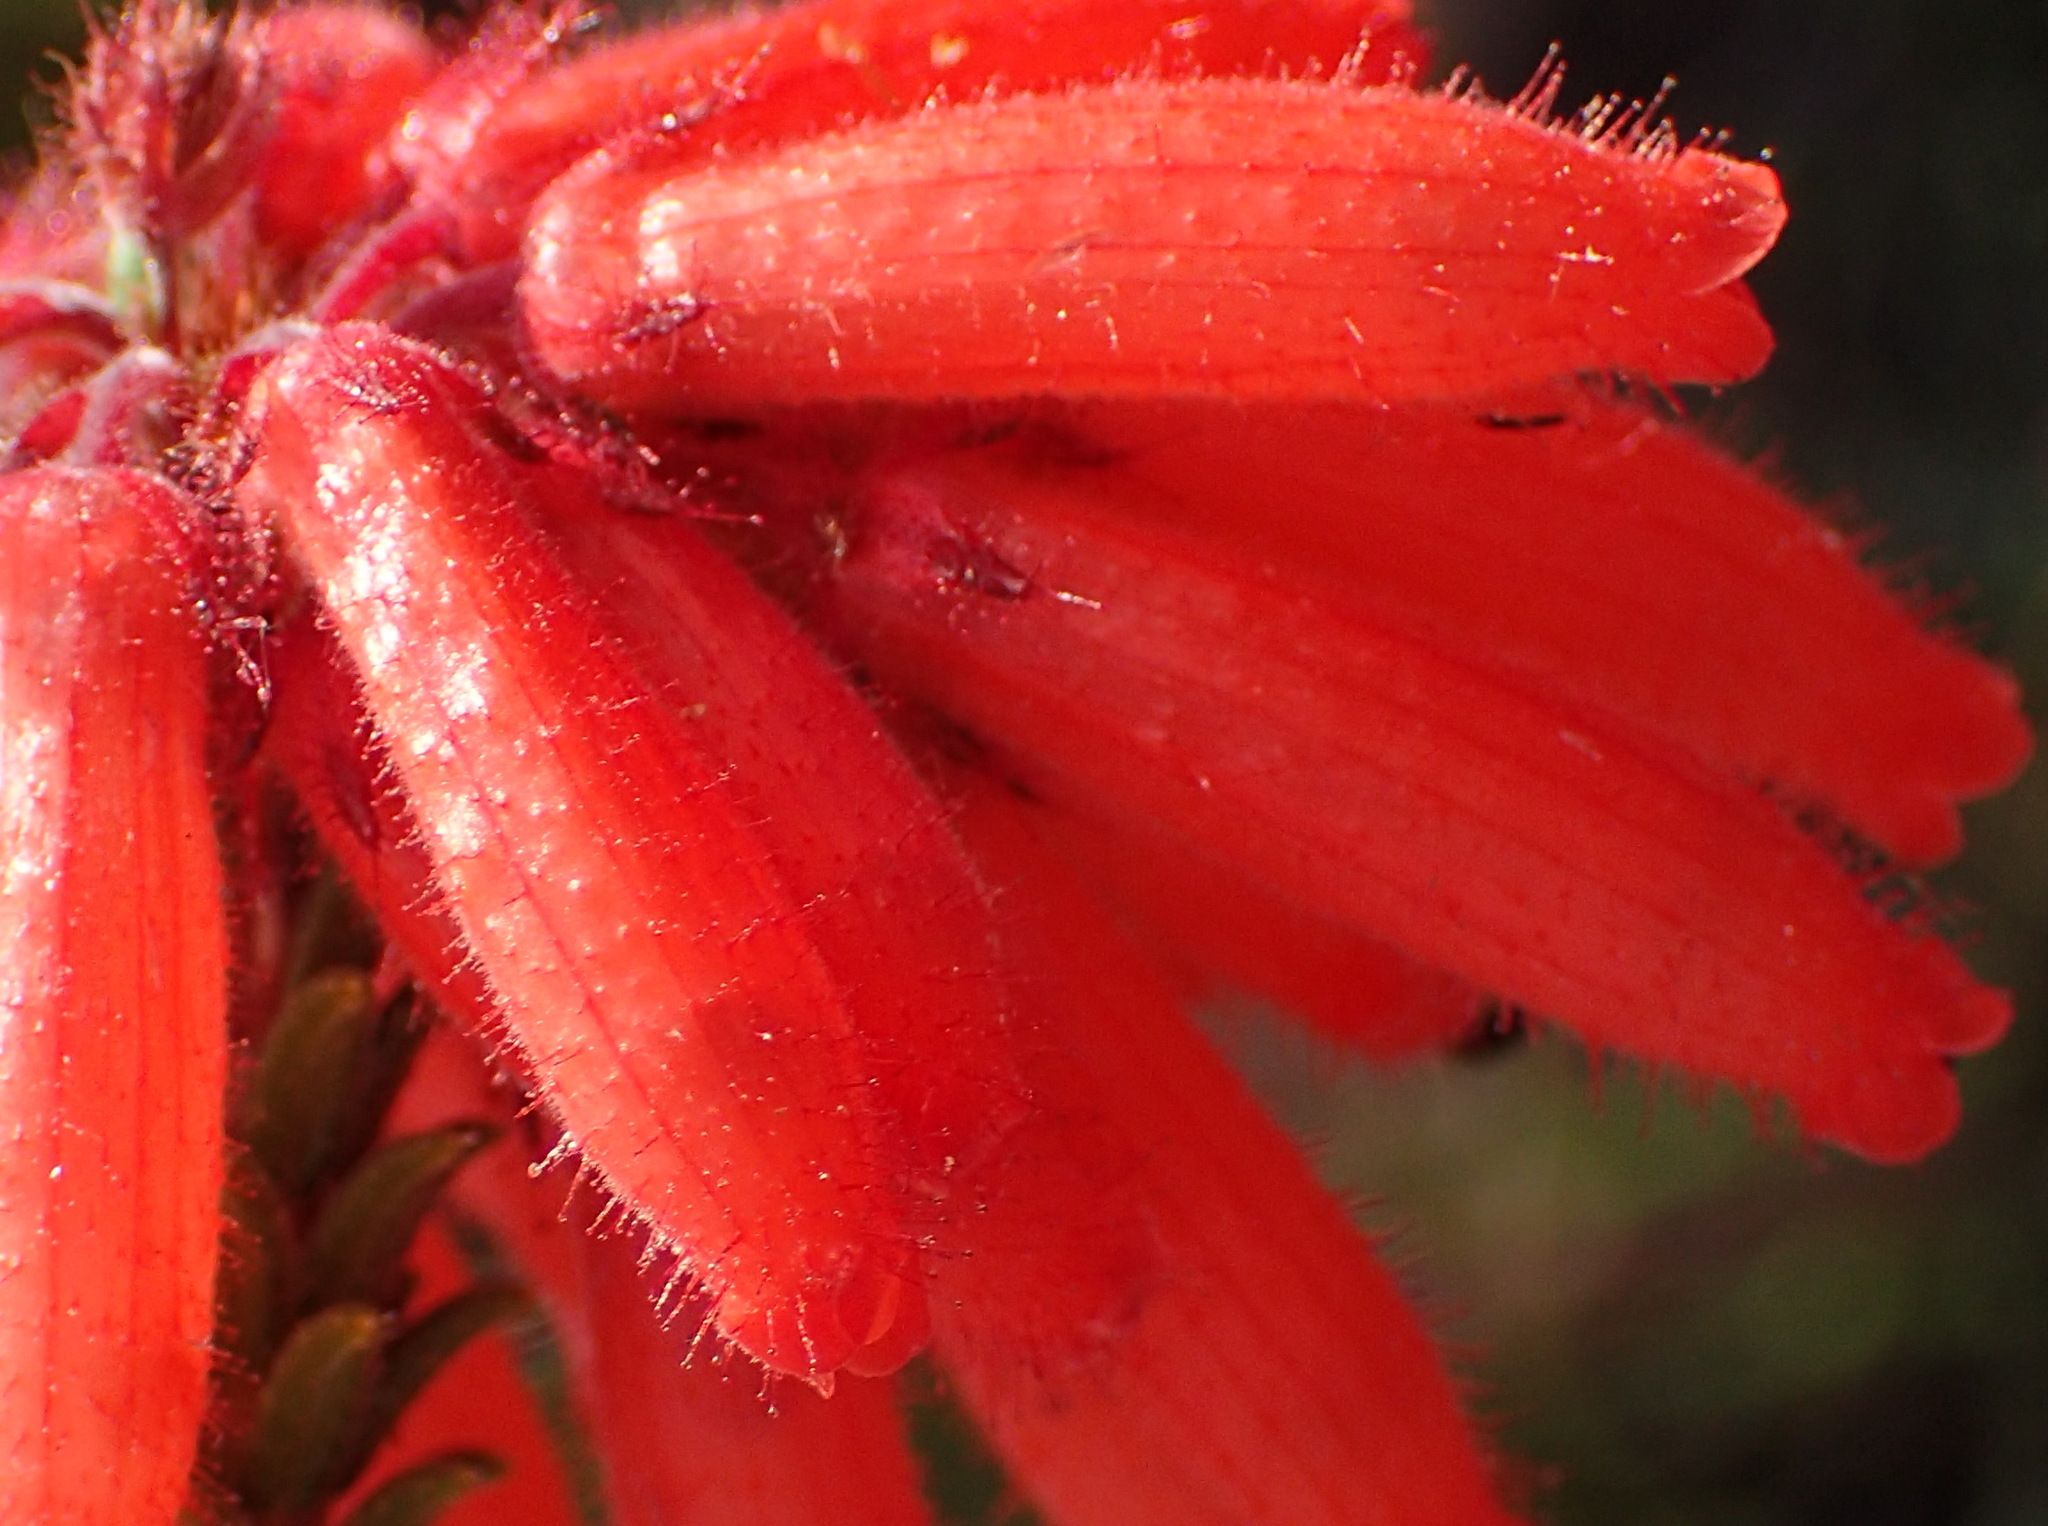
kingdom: Plantae
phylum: Tracheophyta
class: Magnoliopsida
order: Ericales
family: Ericaceae
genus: Erica
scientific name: Erica cerinthoides
